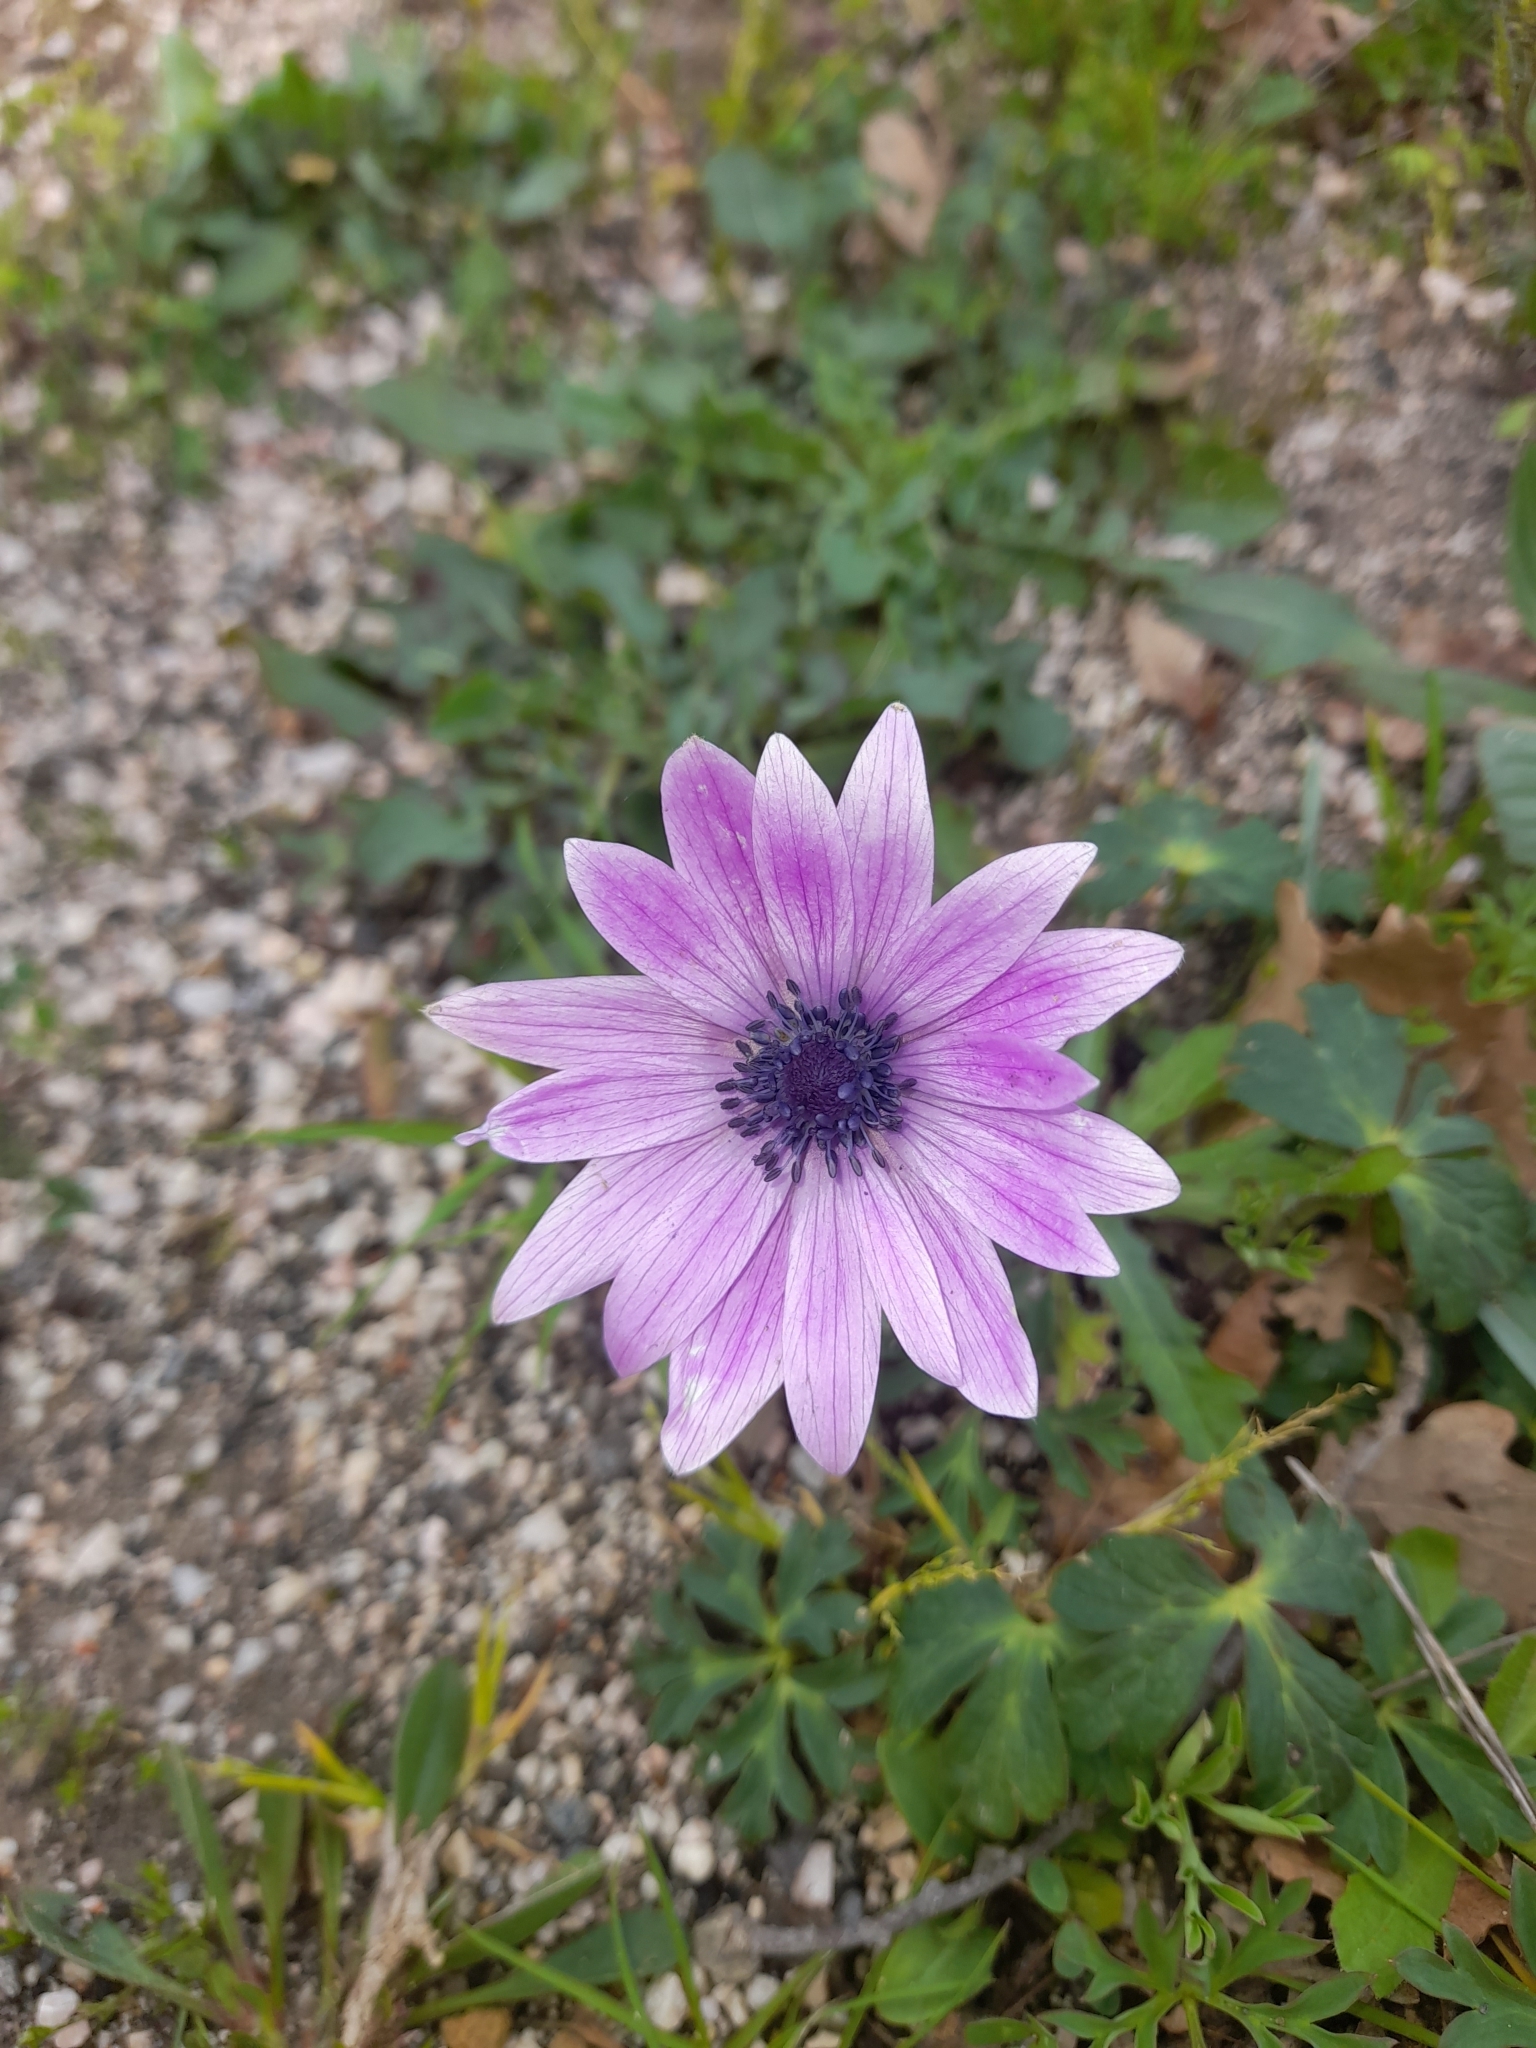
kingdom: Plantae
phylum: Tracheophyta
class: Magnoliopsida
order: Ranunculales
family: Ranunculaceae
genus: Anemone
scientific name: Anemone hortensis
